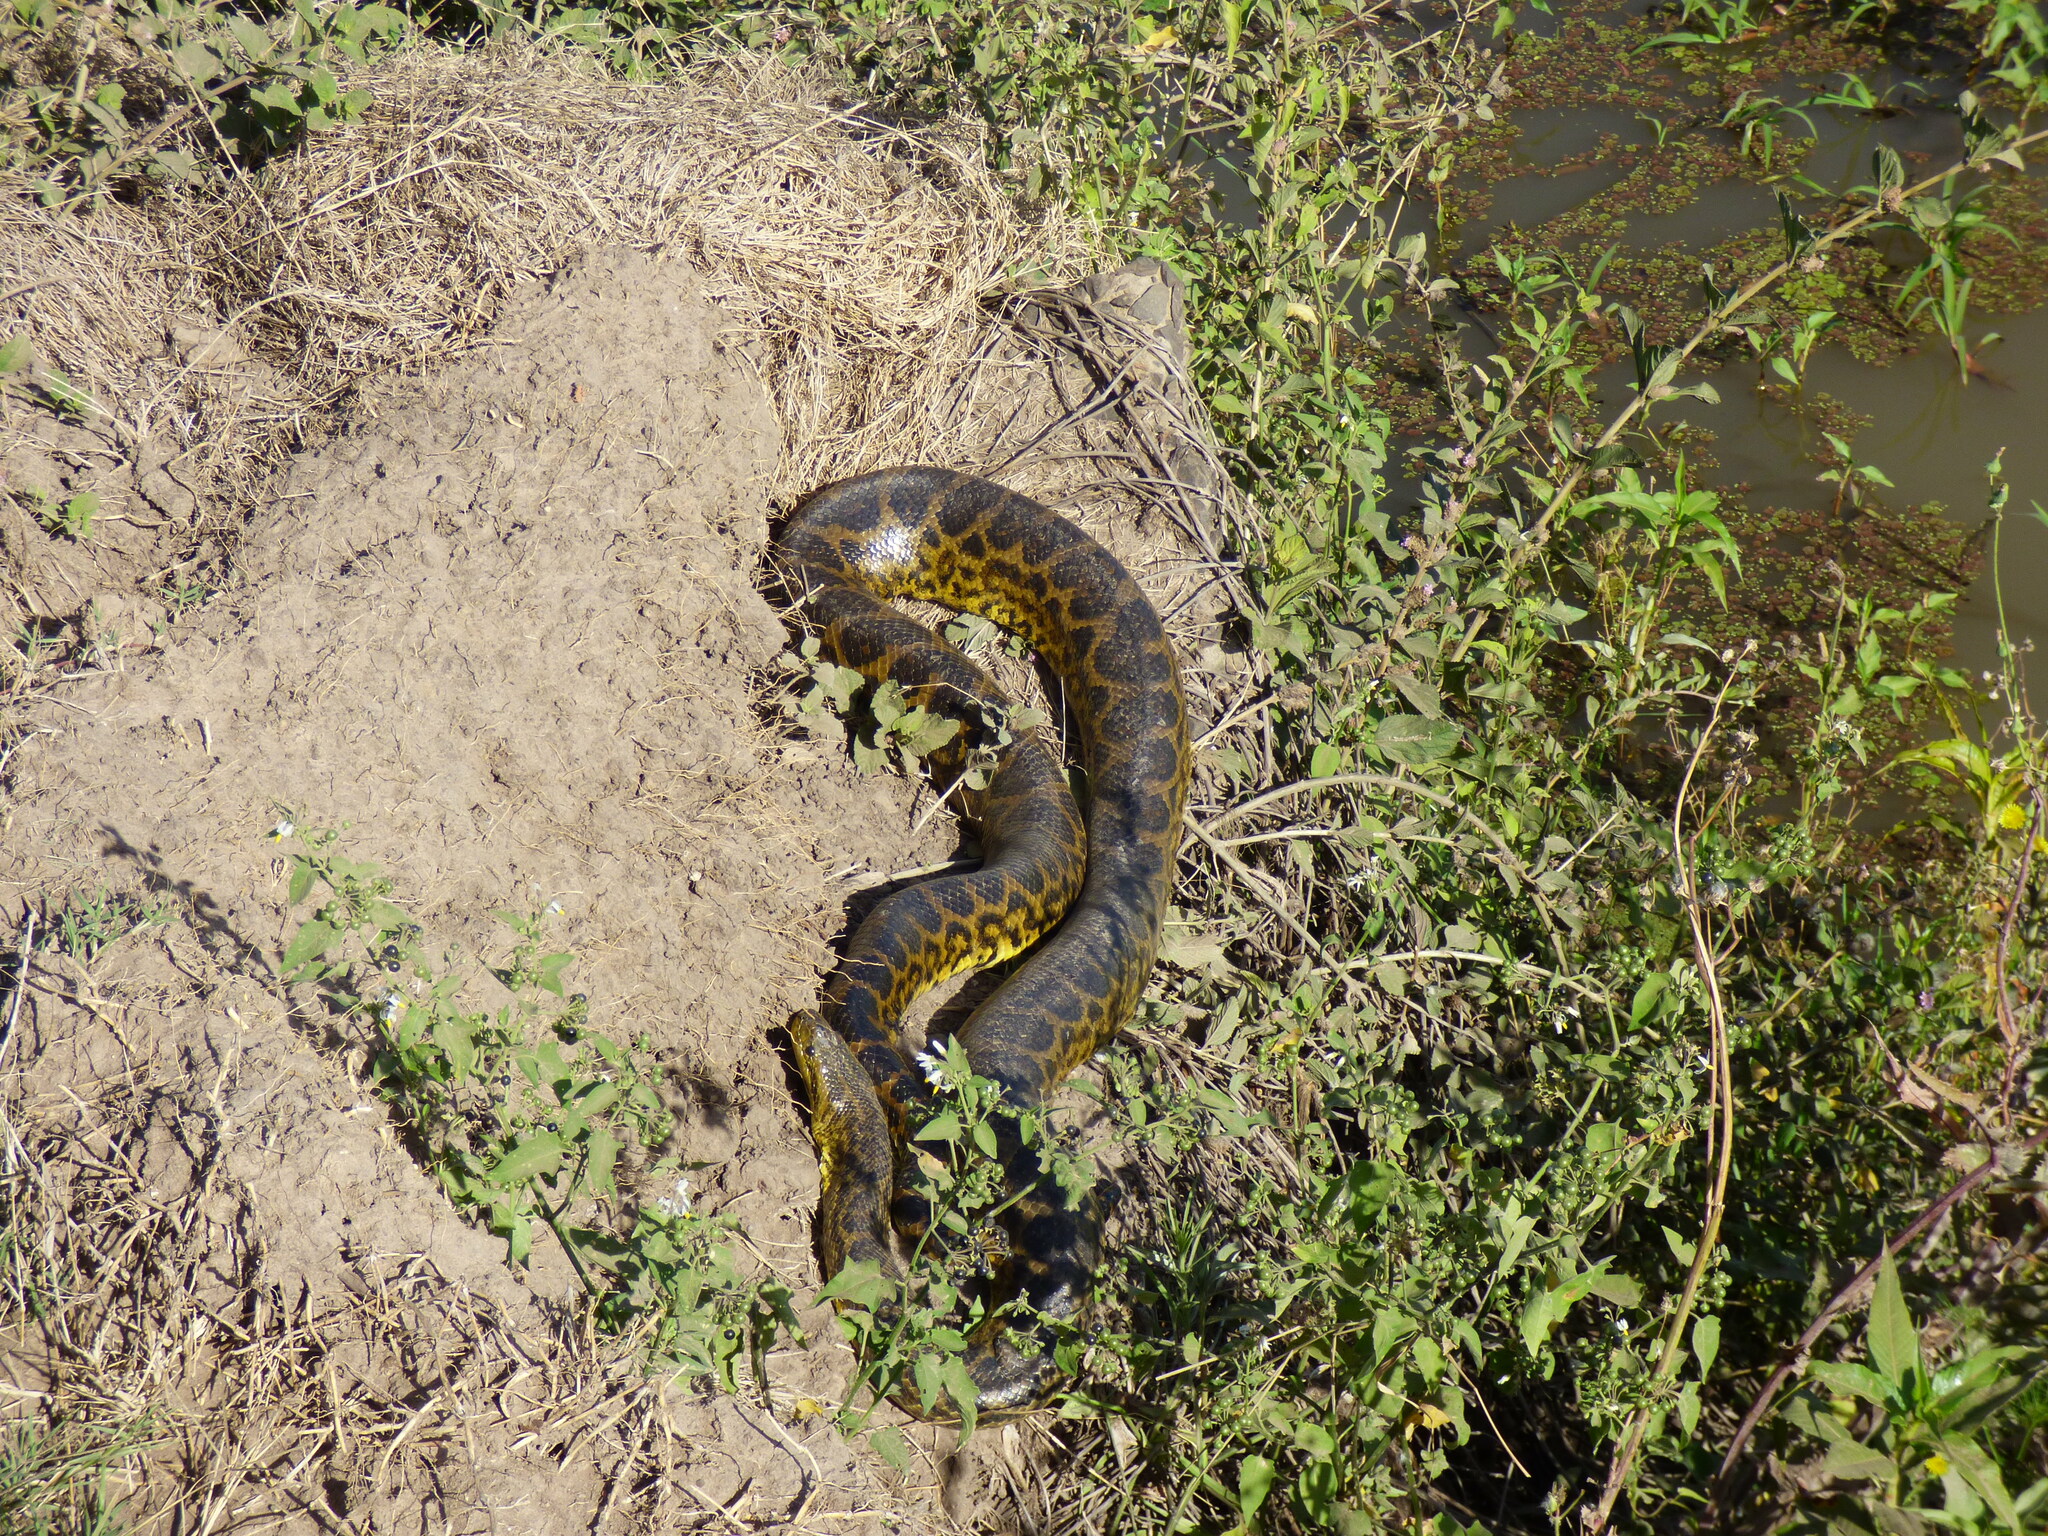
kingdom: Animalia
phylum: Chordata
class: Squamata
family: Boidae
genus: Eunectes
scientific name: Eunectes notaeus
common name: Yellow anaconda
